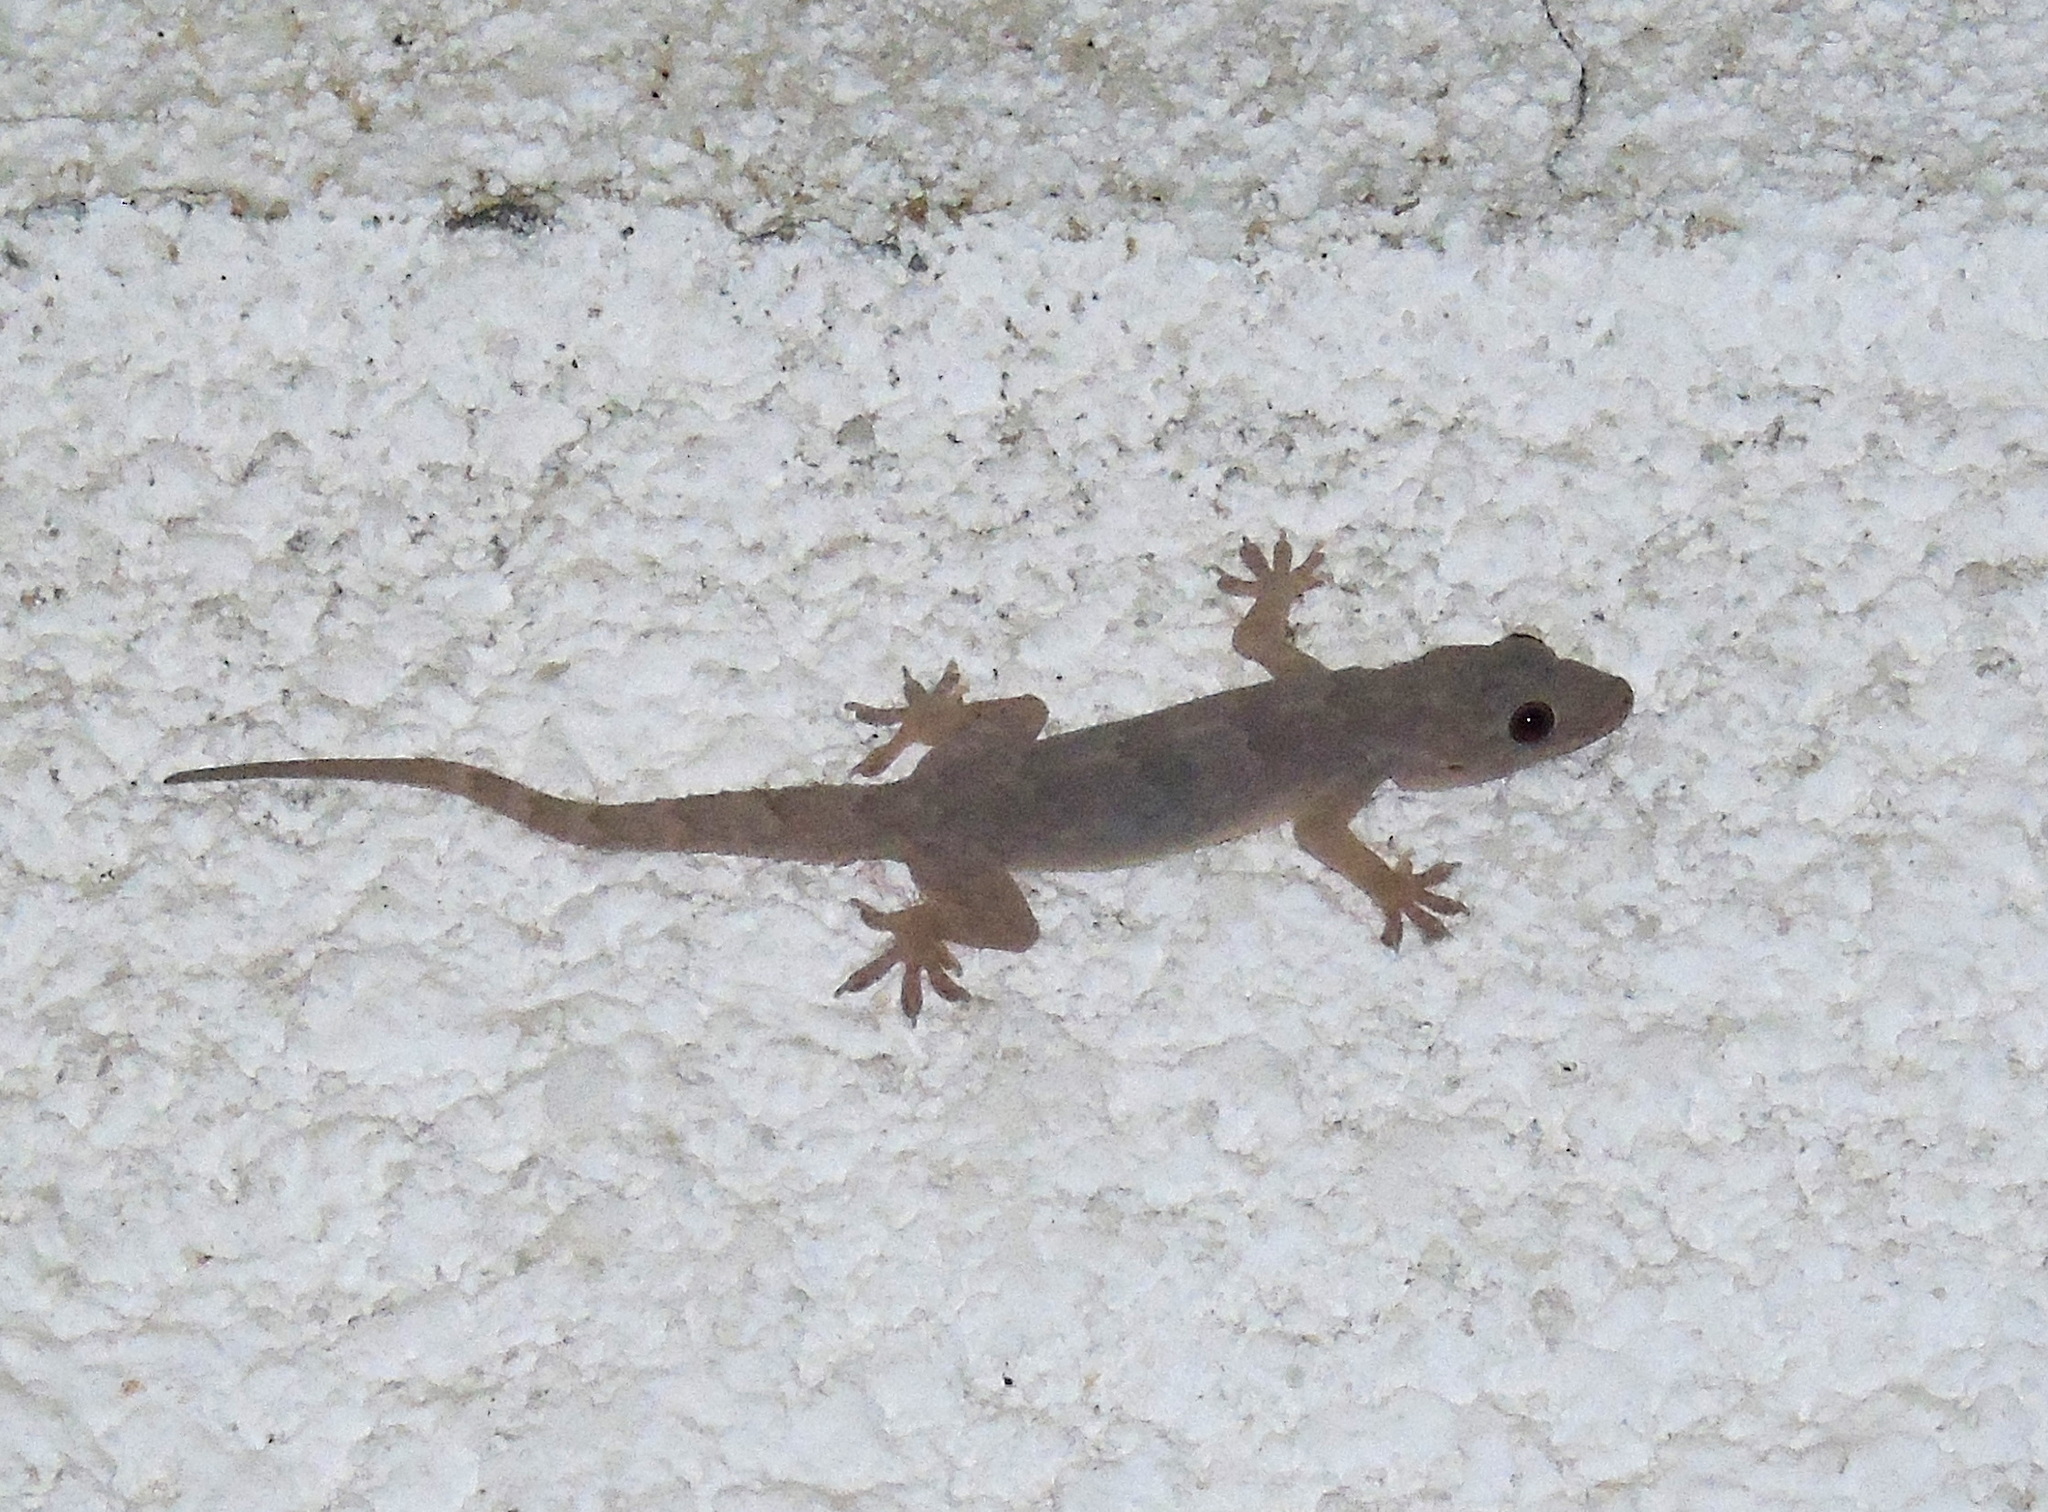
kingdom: Animalia
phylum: Chordata
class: Squamata
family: Gekkonidae
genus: Hemidactylus
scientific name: Hemidactylus flaviviridis
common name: Northern house gecko
